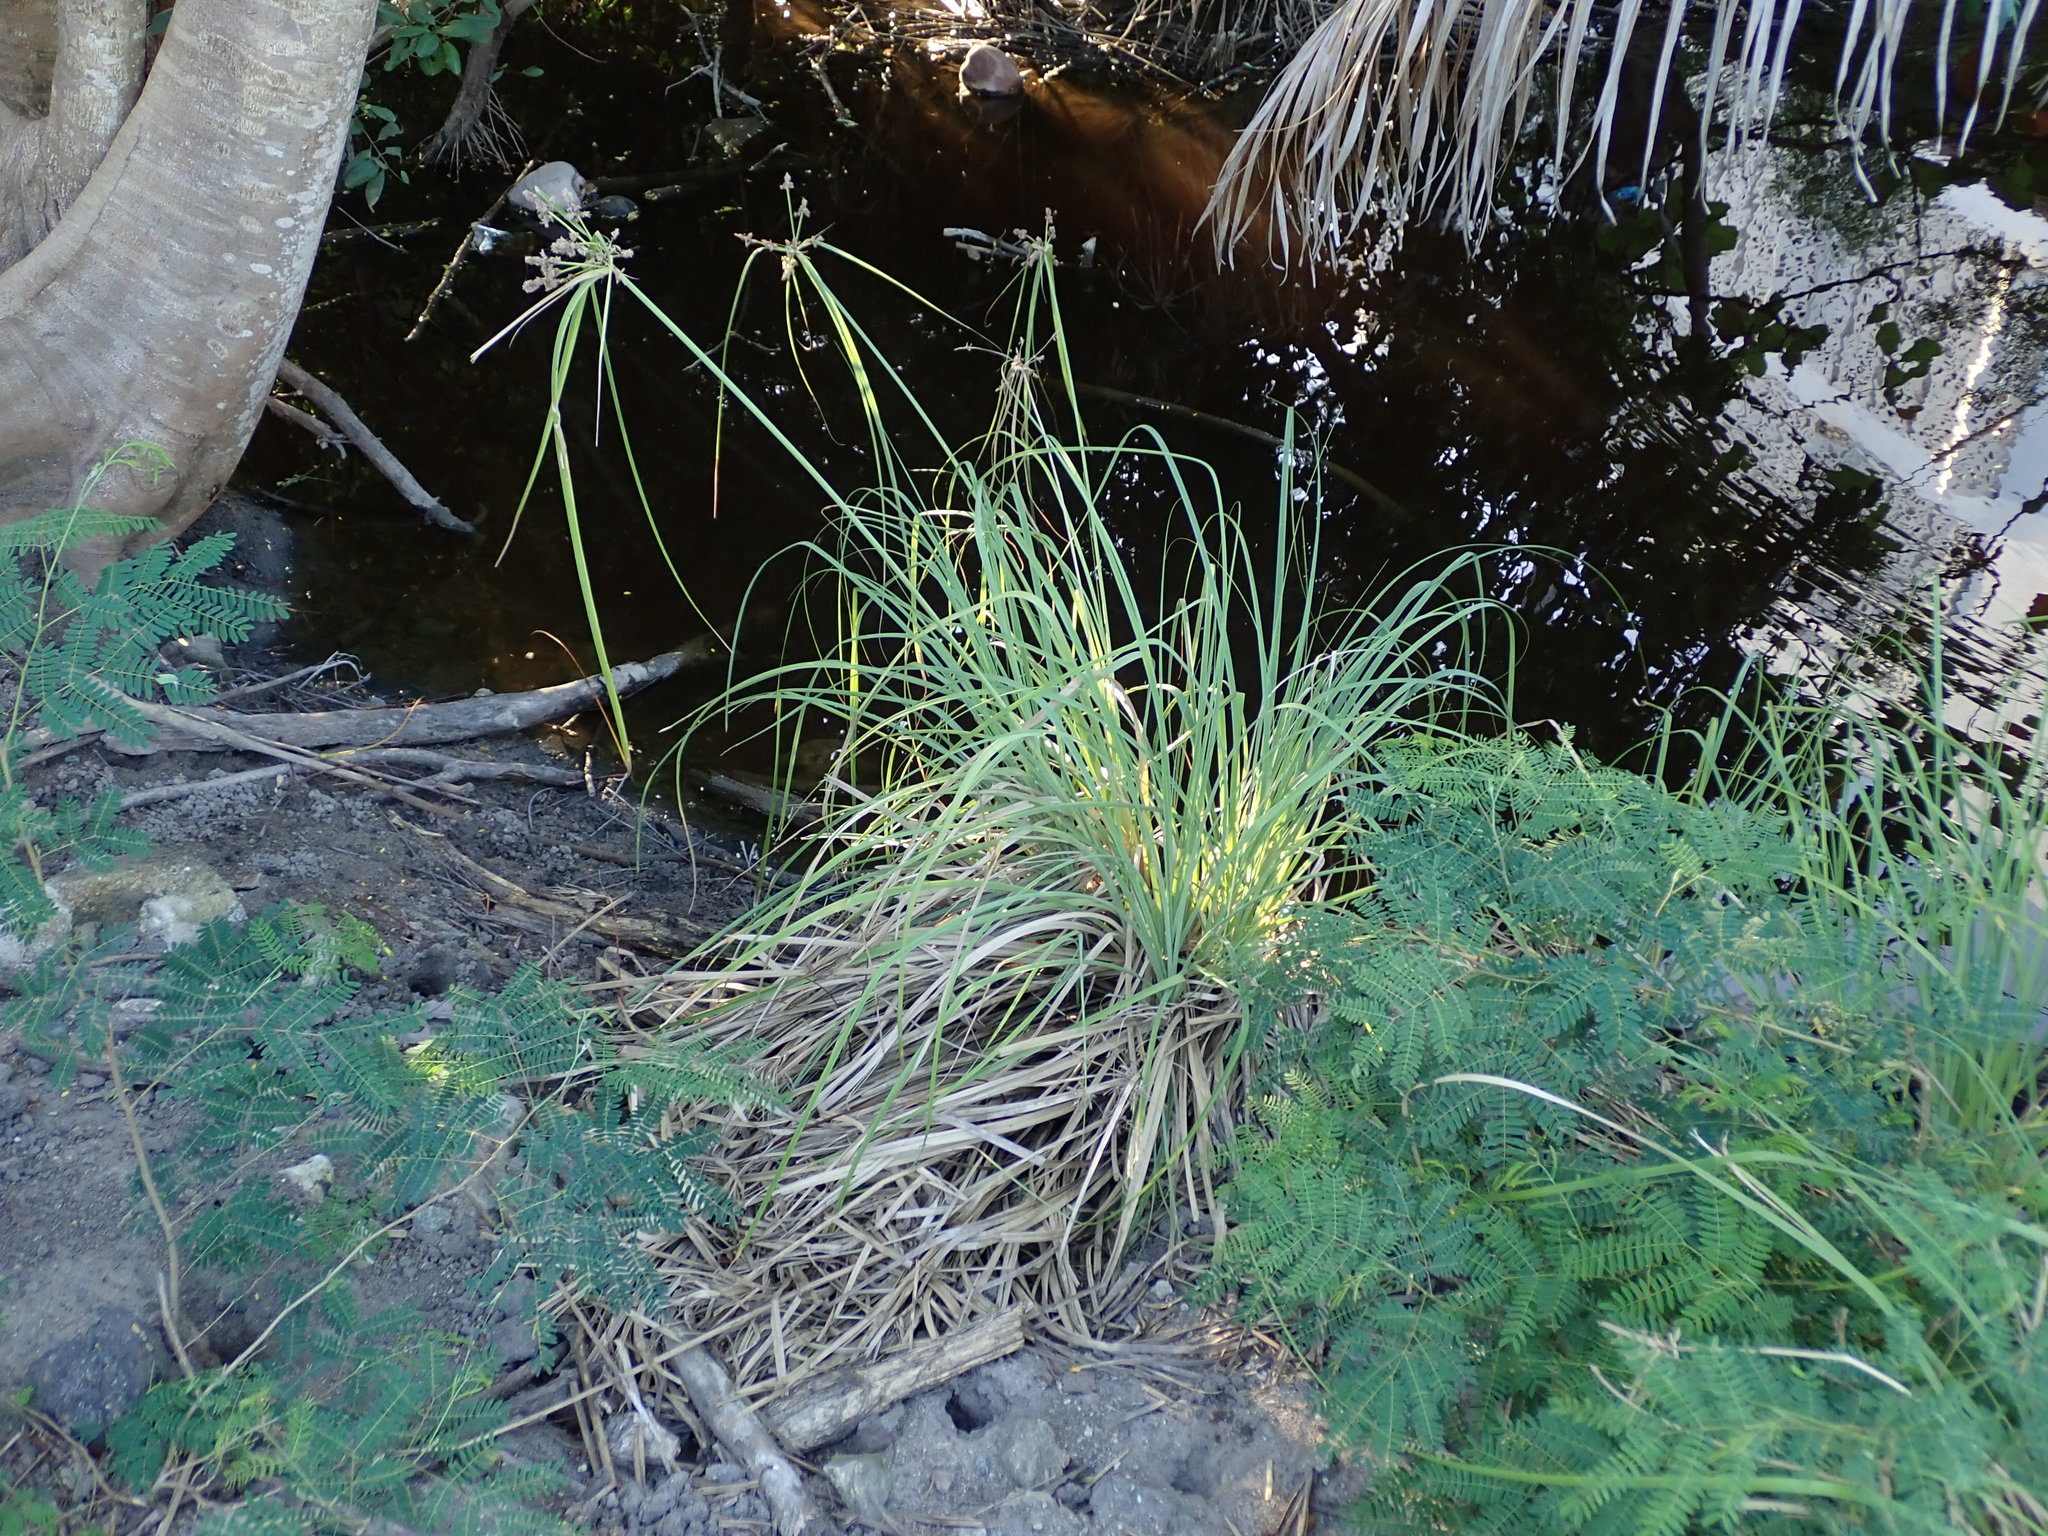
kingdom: Plantae
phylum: Tracheophyta
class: Liliopsida
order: Poales
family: Cyperaceae
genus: Cyperus
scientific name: Cyperus ligularis
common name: Swamp flat sedge
